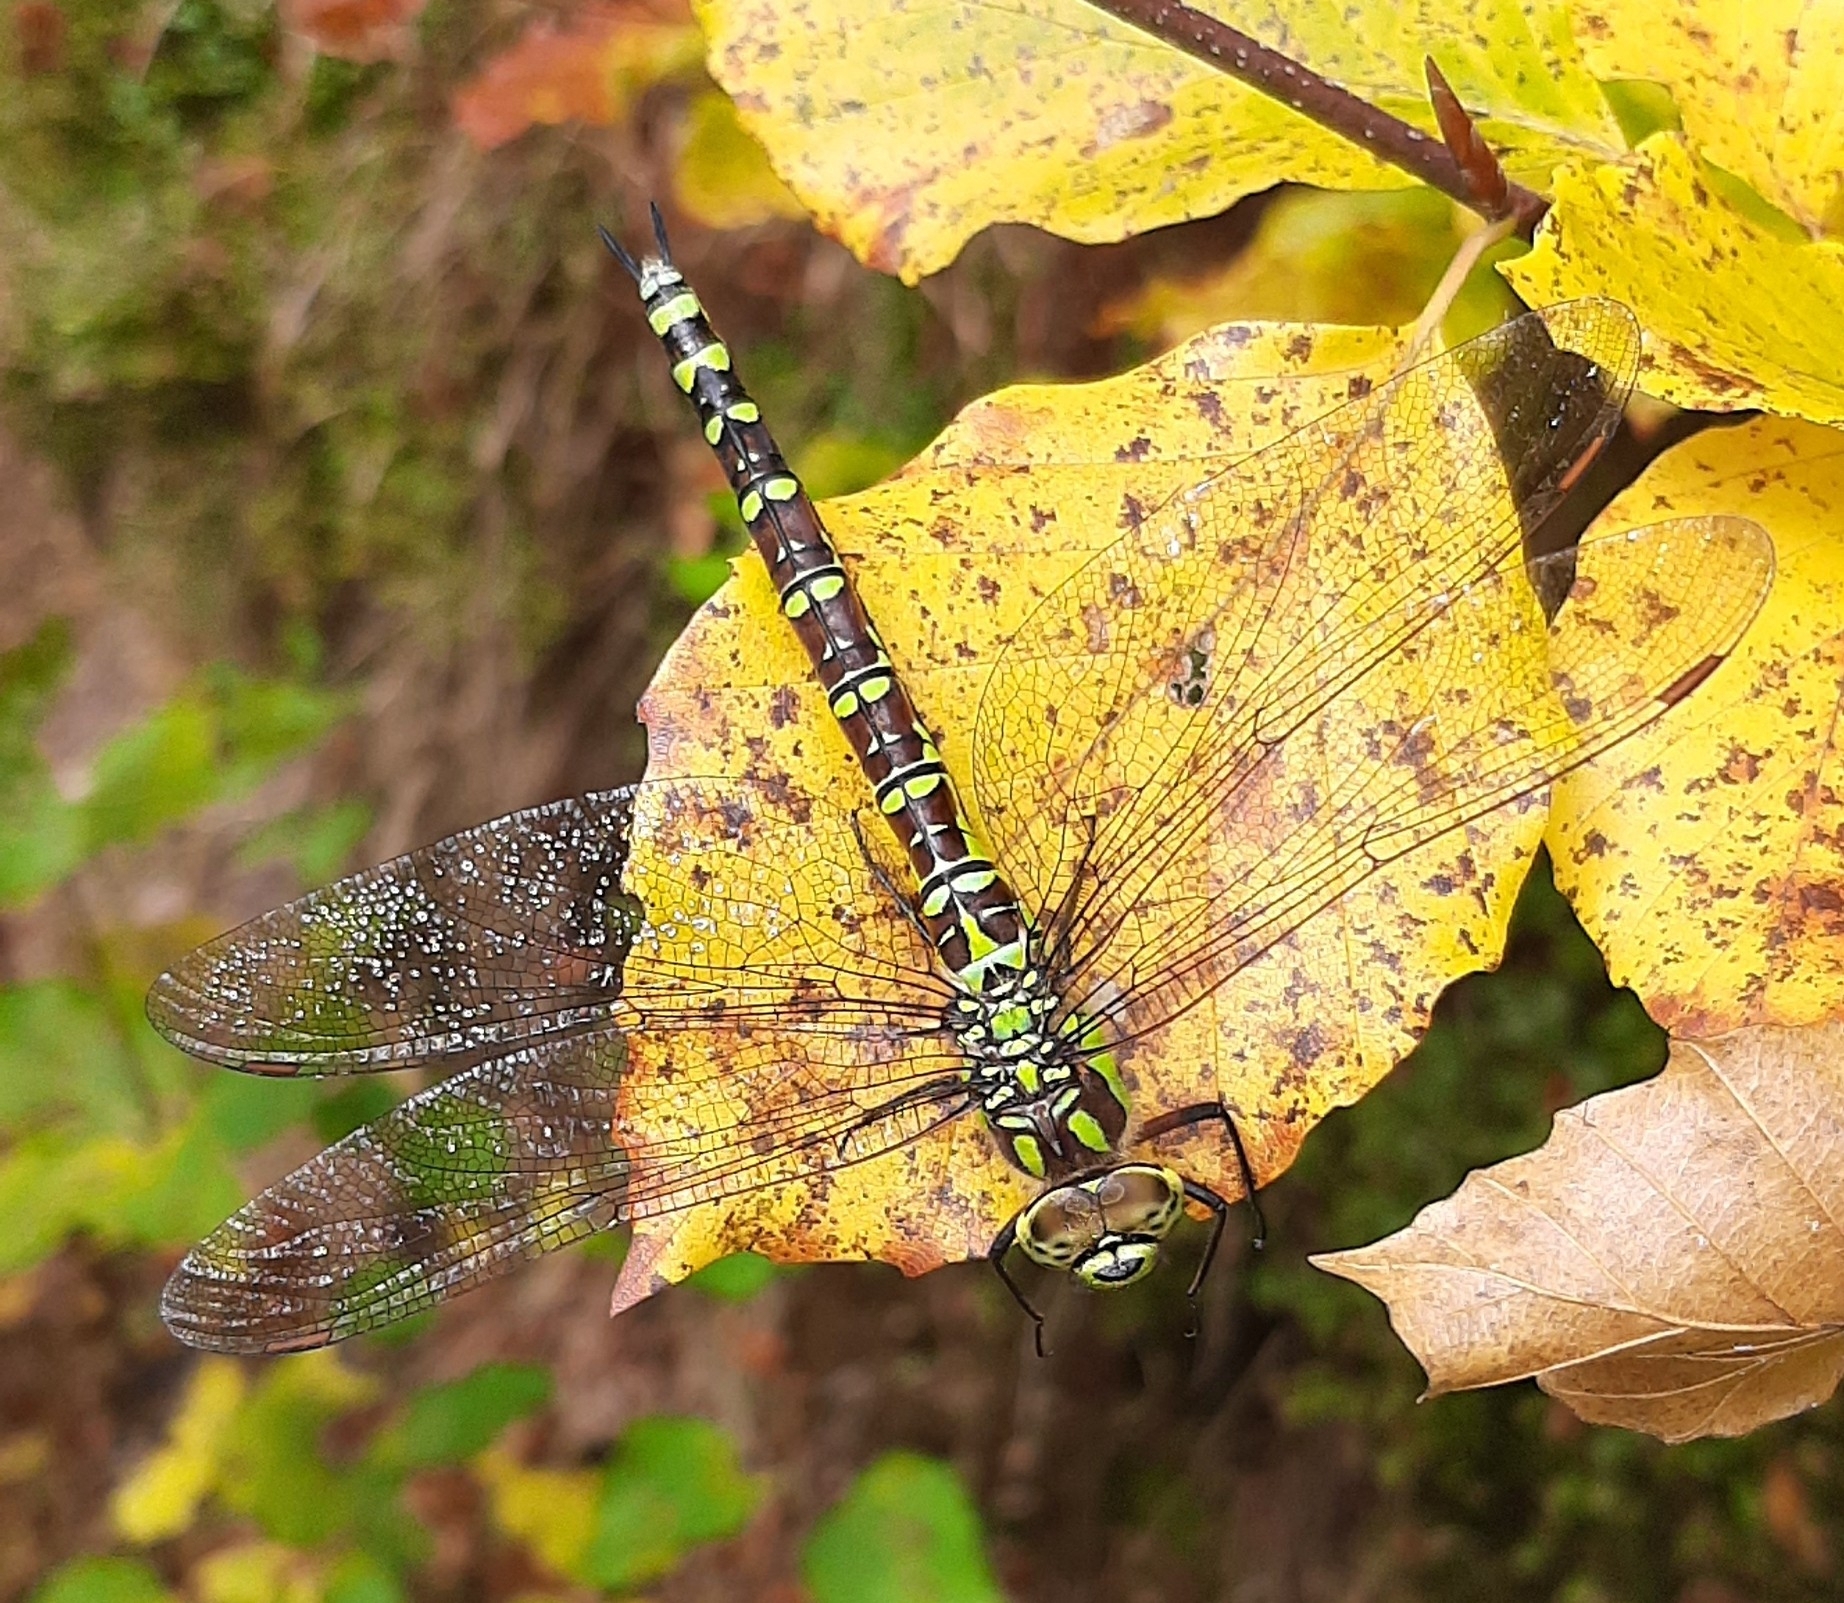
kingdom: Animalia
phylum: Arthropoda
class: Insecta
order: Odonata
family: Aeshnidae
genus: Aeshna
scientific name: Aeshna cyanea
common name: Southern hawker
